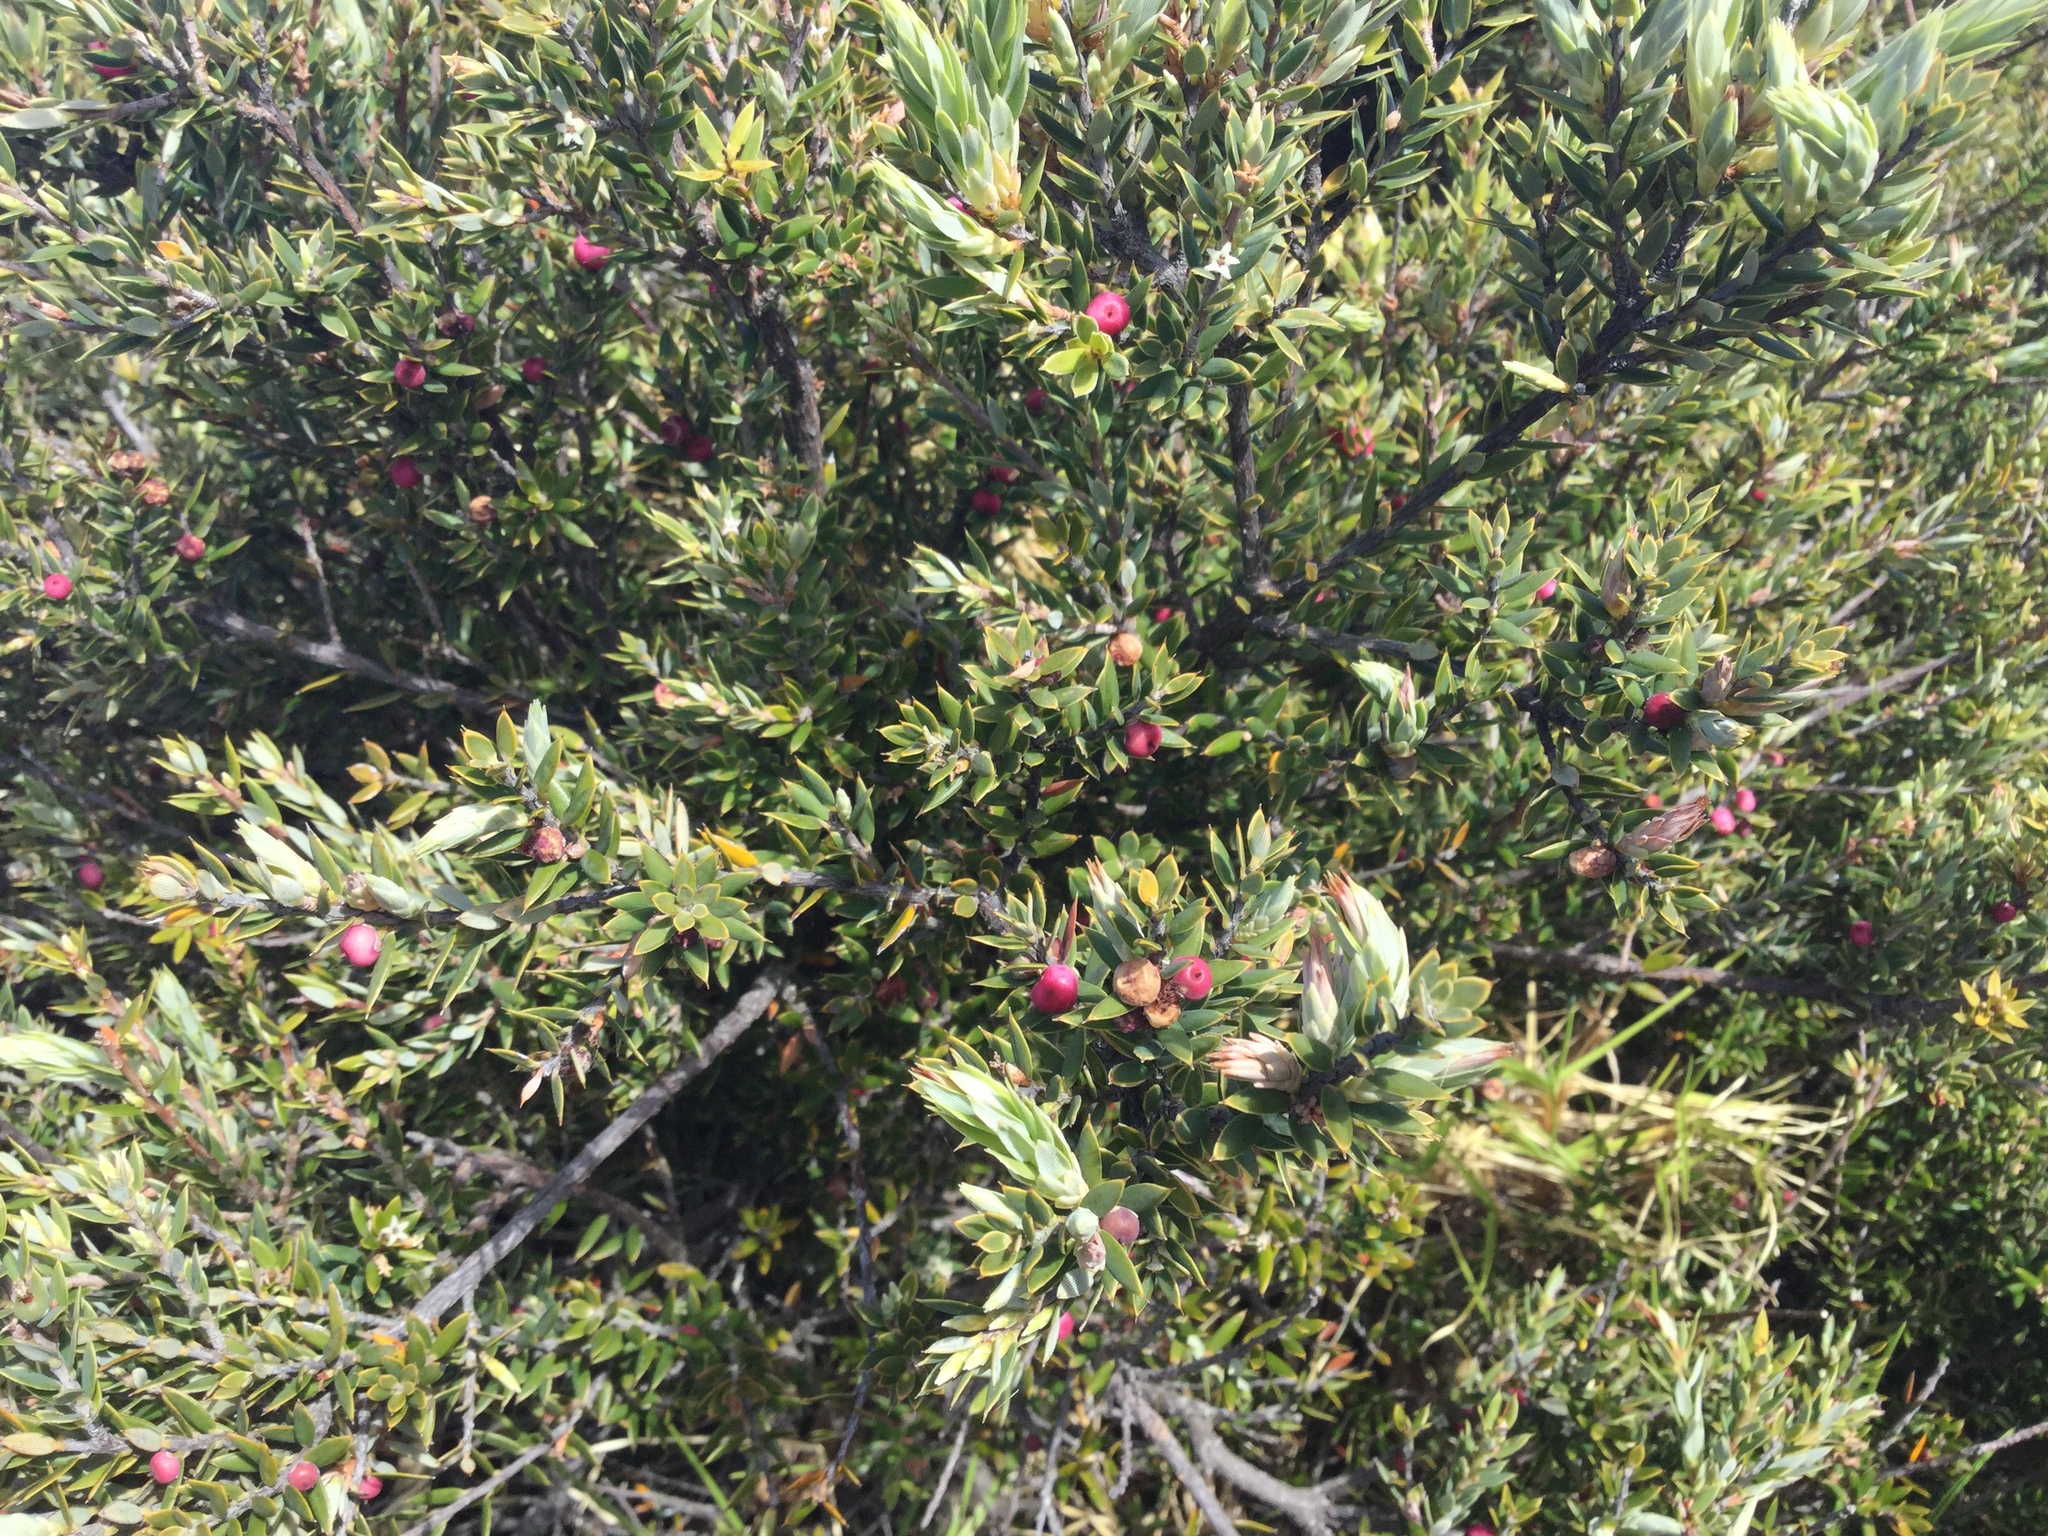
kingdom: Plantae
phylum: Tracheophyta
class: Magnoliopsida
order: Ericales
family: Ericaceae
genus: Leptecophylla
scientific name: Leptecophylla tameiameiae
